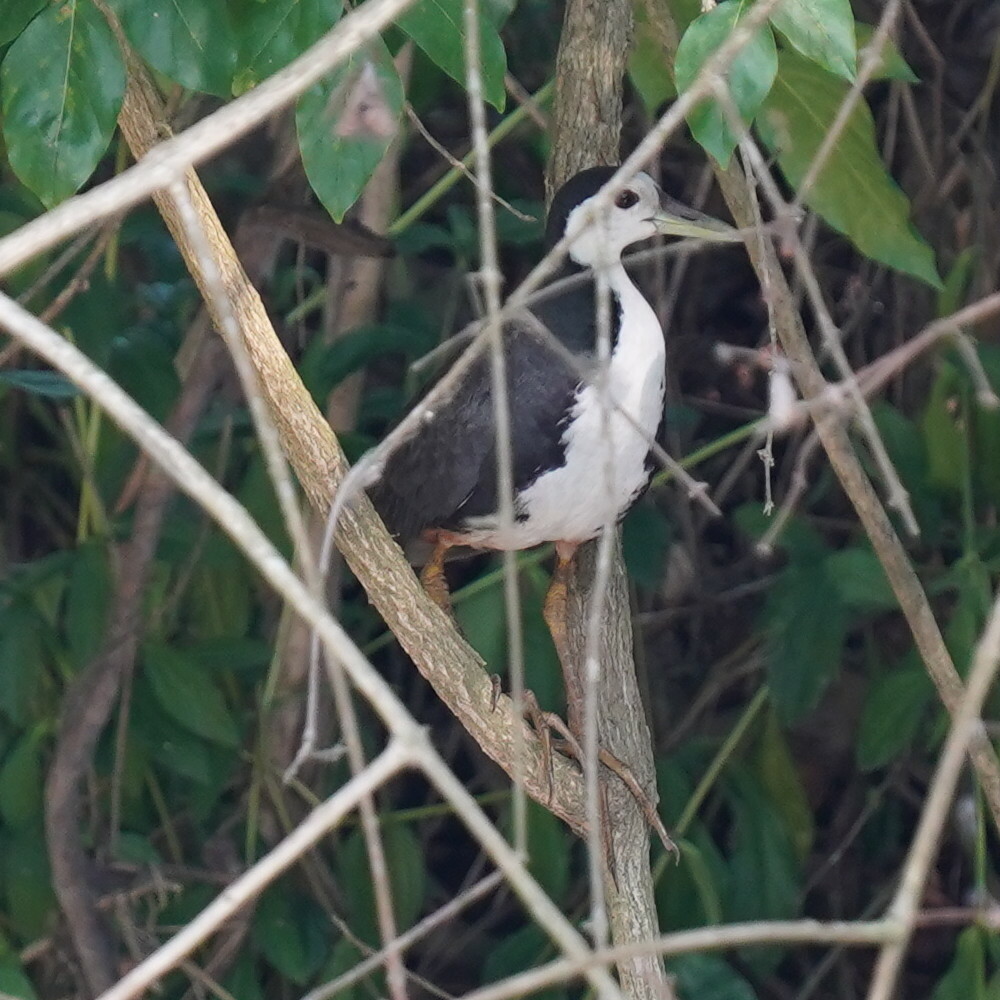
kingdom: Animalia
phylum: Chordata
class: Aves
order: Gruiformes
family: Rallidae
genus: Amaurornis
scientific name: Amaurornis phoenicurus
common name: White-breasted waterhen
